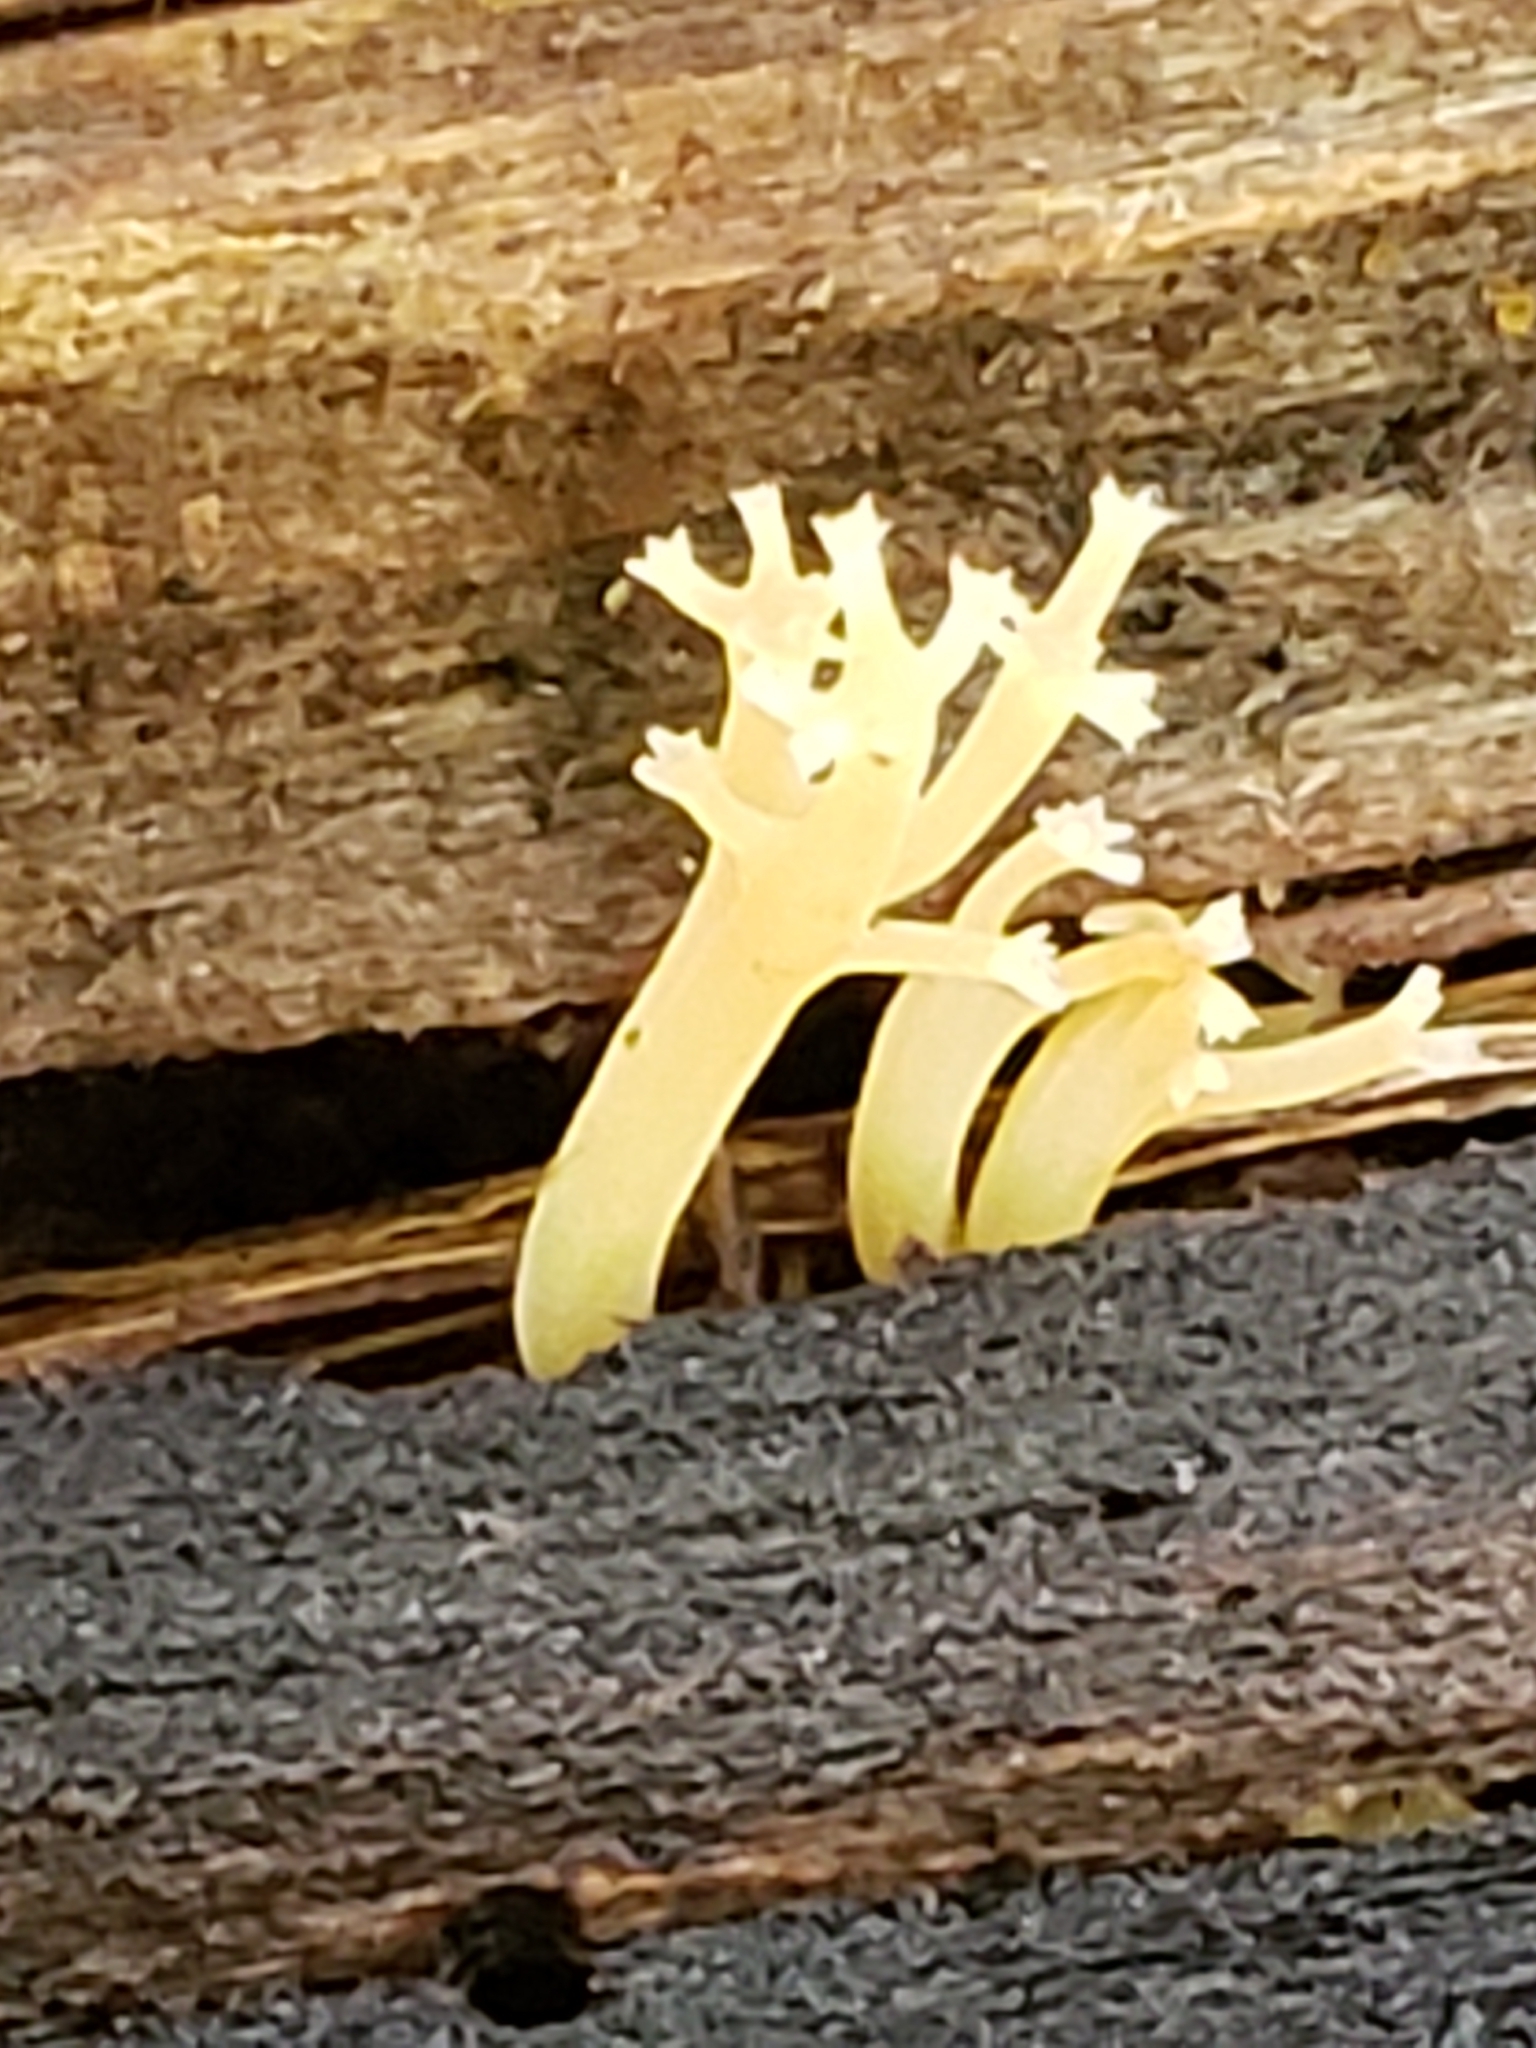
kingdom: Fungi
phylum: Basidiomycota
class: Agaricomycetes
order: Russulales
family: Auriscalpiaceae
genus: Artomyces
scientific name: Artomyces pyxidatus
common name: Crown-tipped coral fungus
